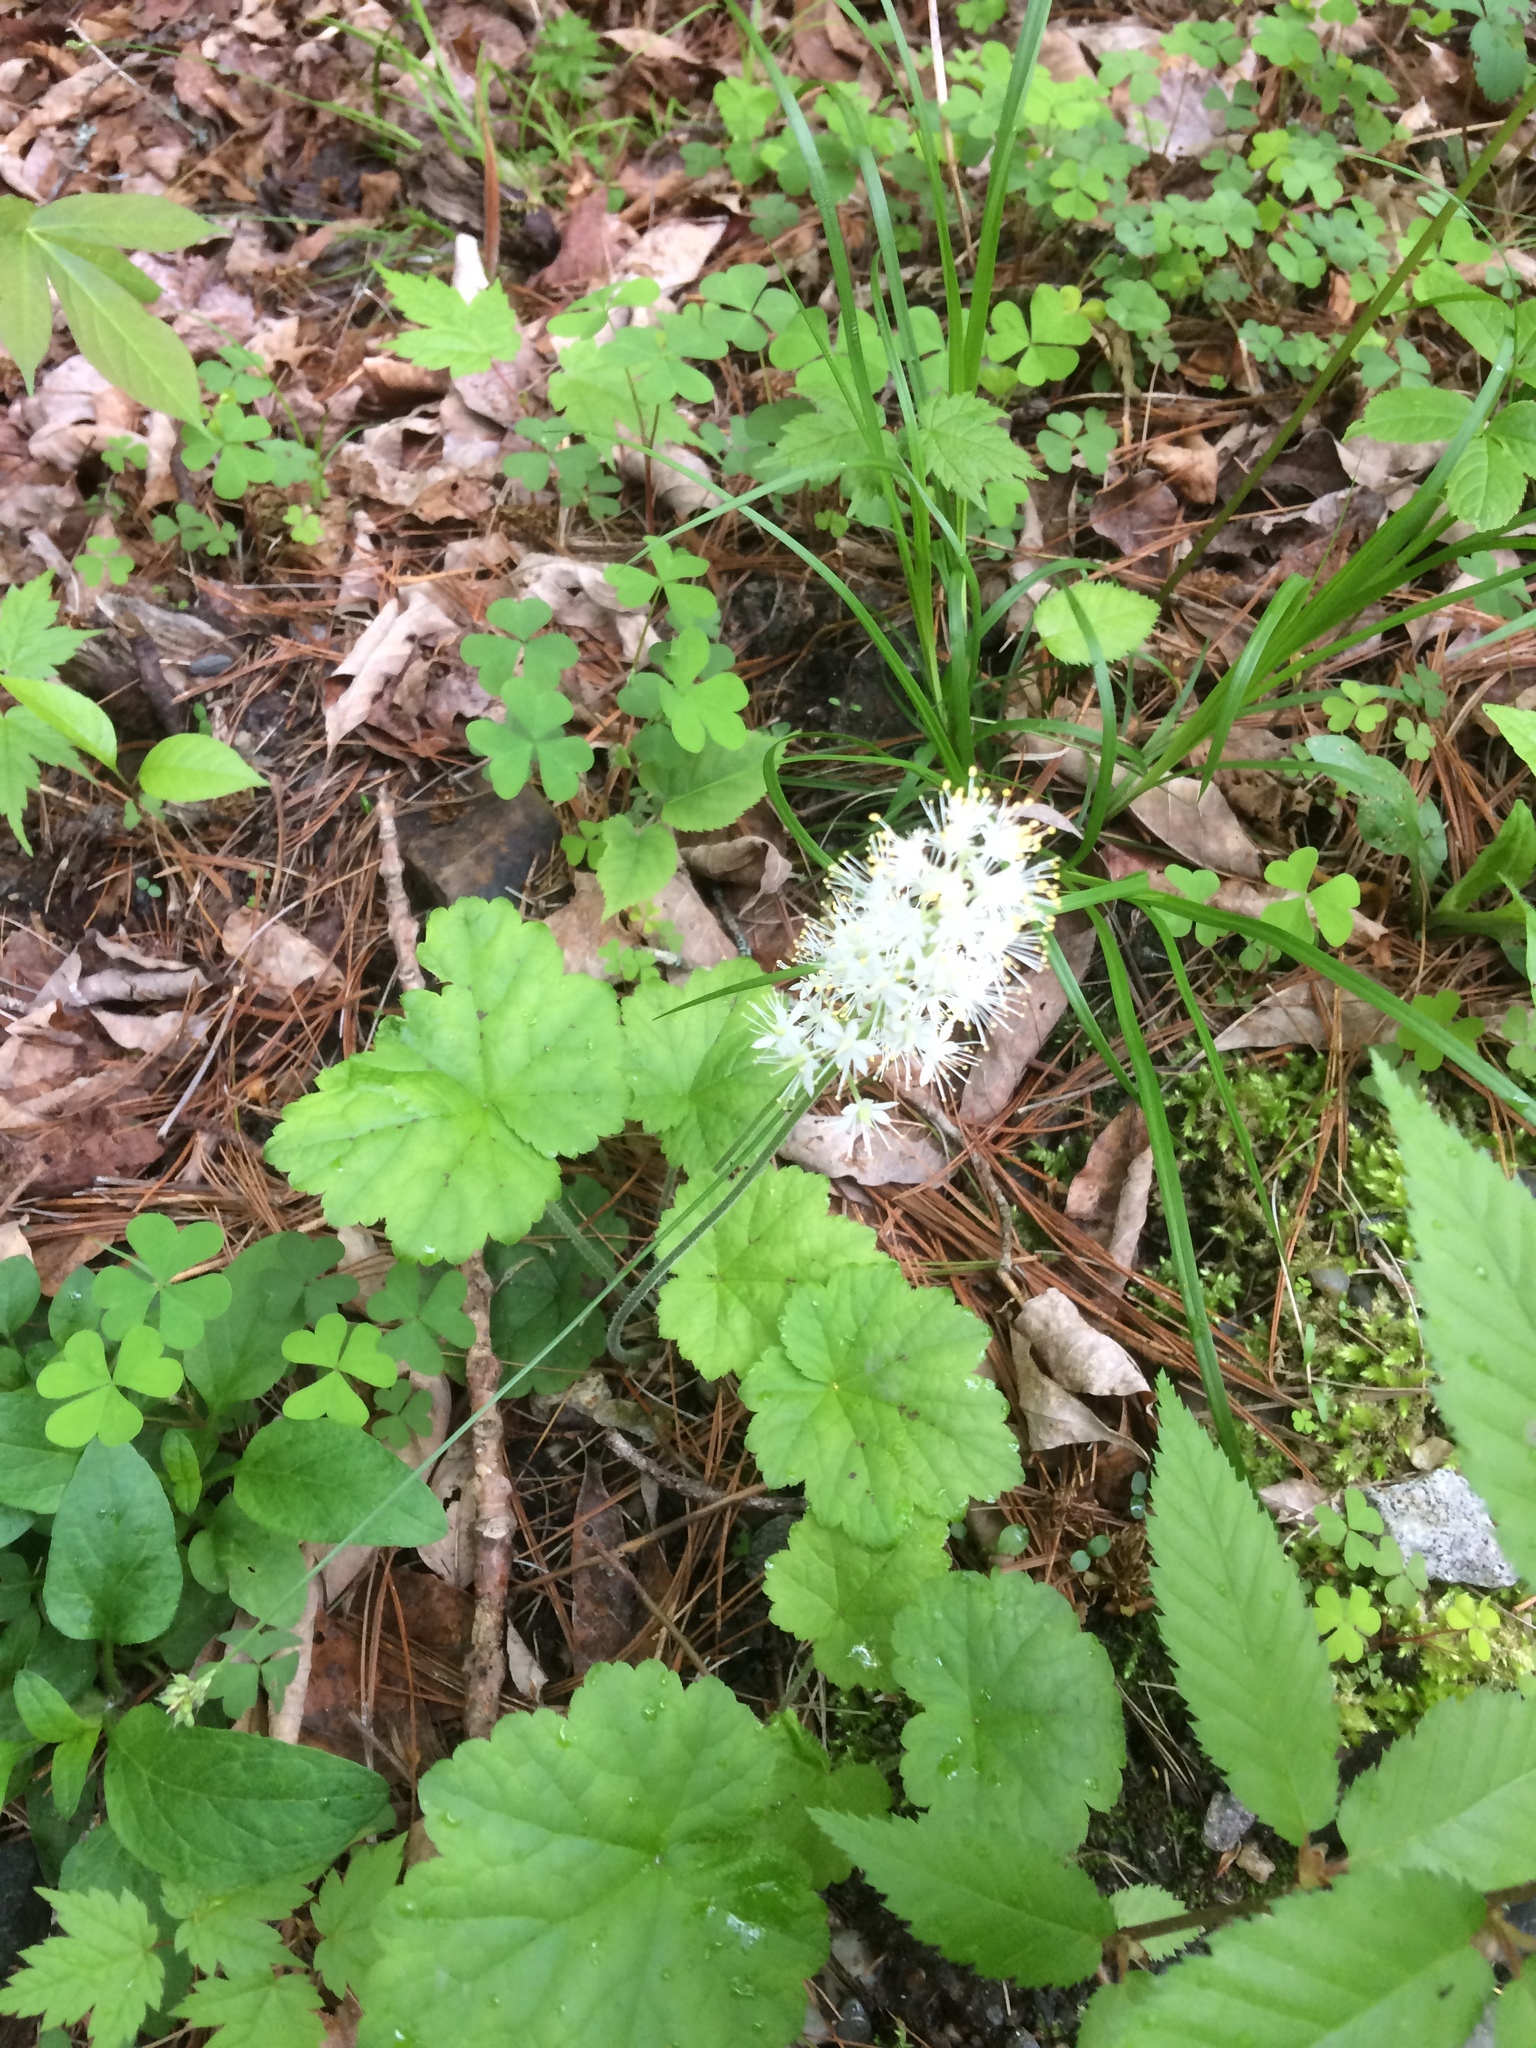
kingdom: Plantae
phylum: Tracheophyta
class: Magnoliopsida
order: Saxifragales
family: Saxifragaceae
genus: Tiarella
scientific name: Tiarella stolonifera
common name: Stoloniferous foamflower
